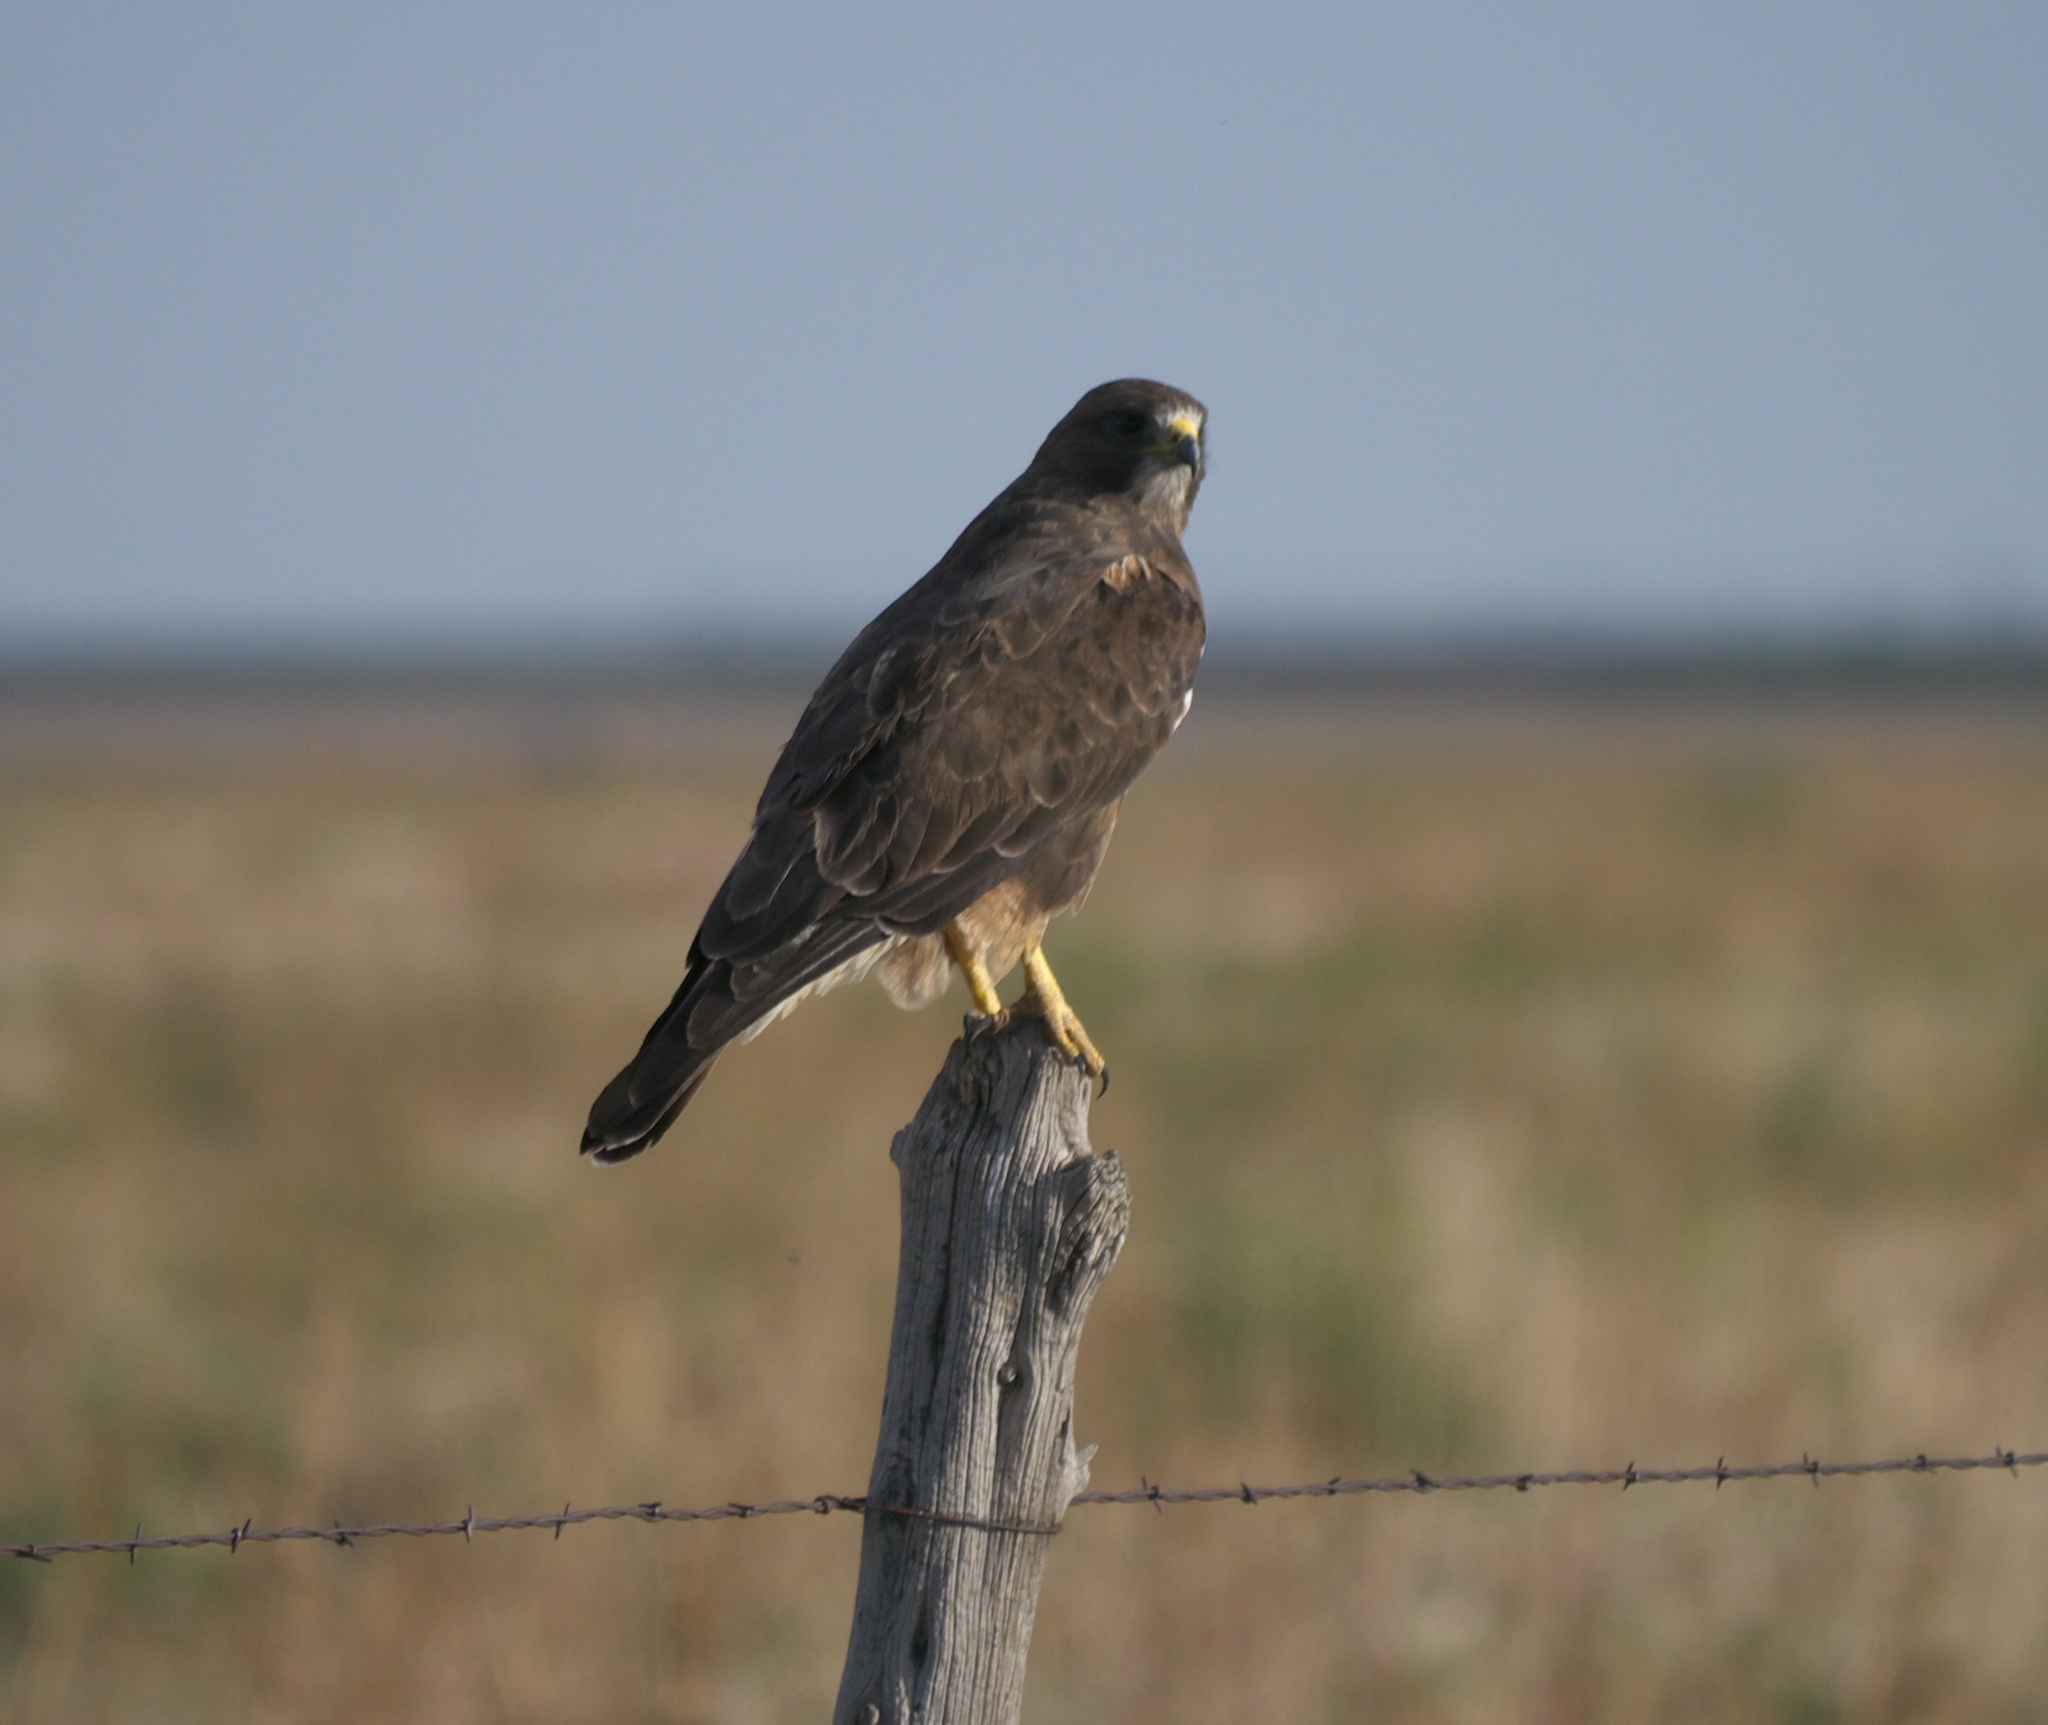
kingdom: Animalia
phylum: Chordata
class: Aves
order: Accipitriformes
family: Accipitridae
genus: Buteo
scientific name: Buteo swainsoni
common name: Swainson's hawk
